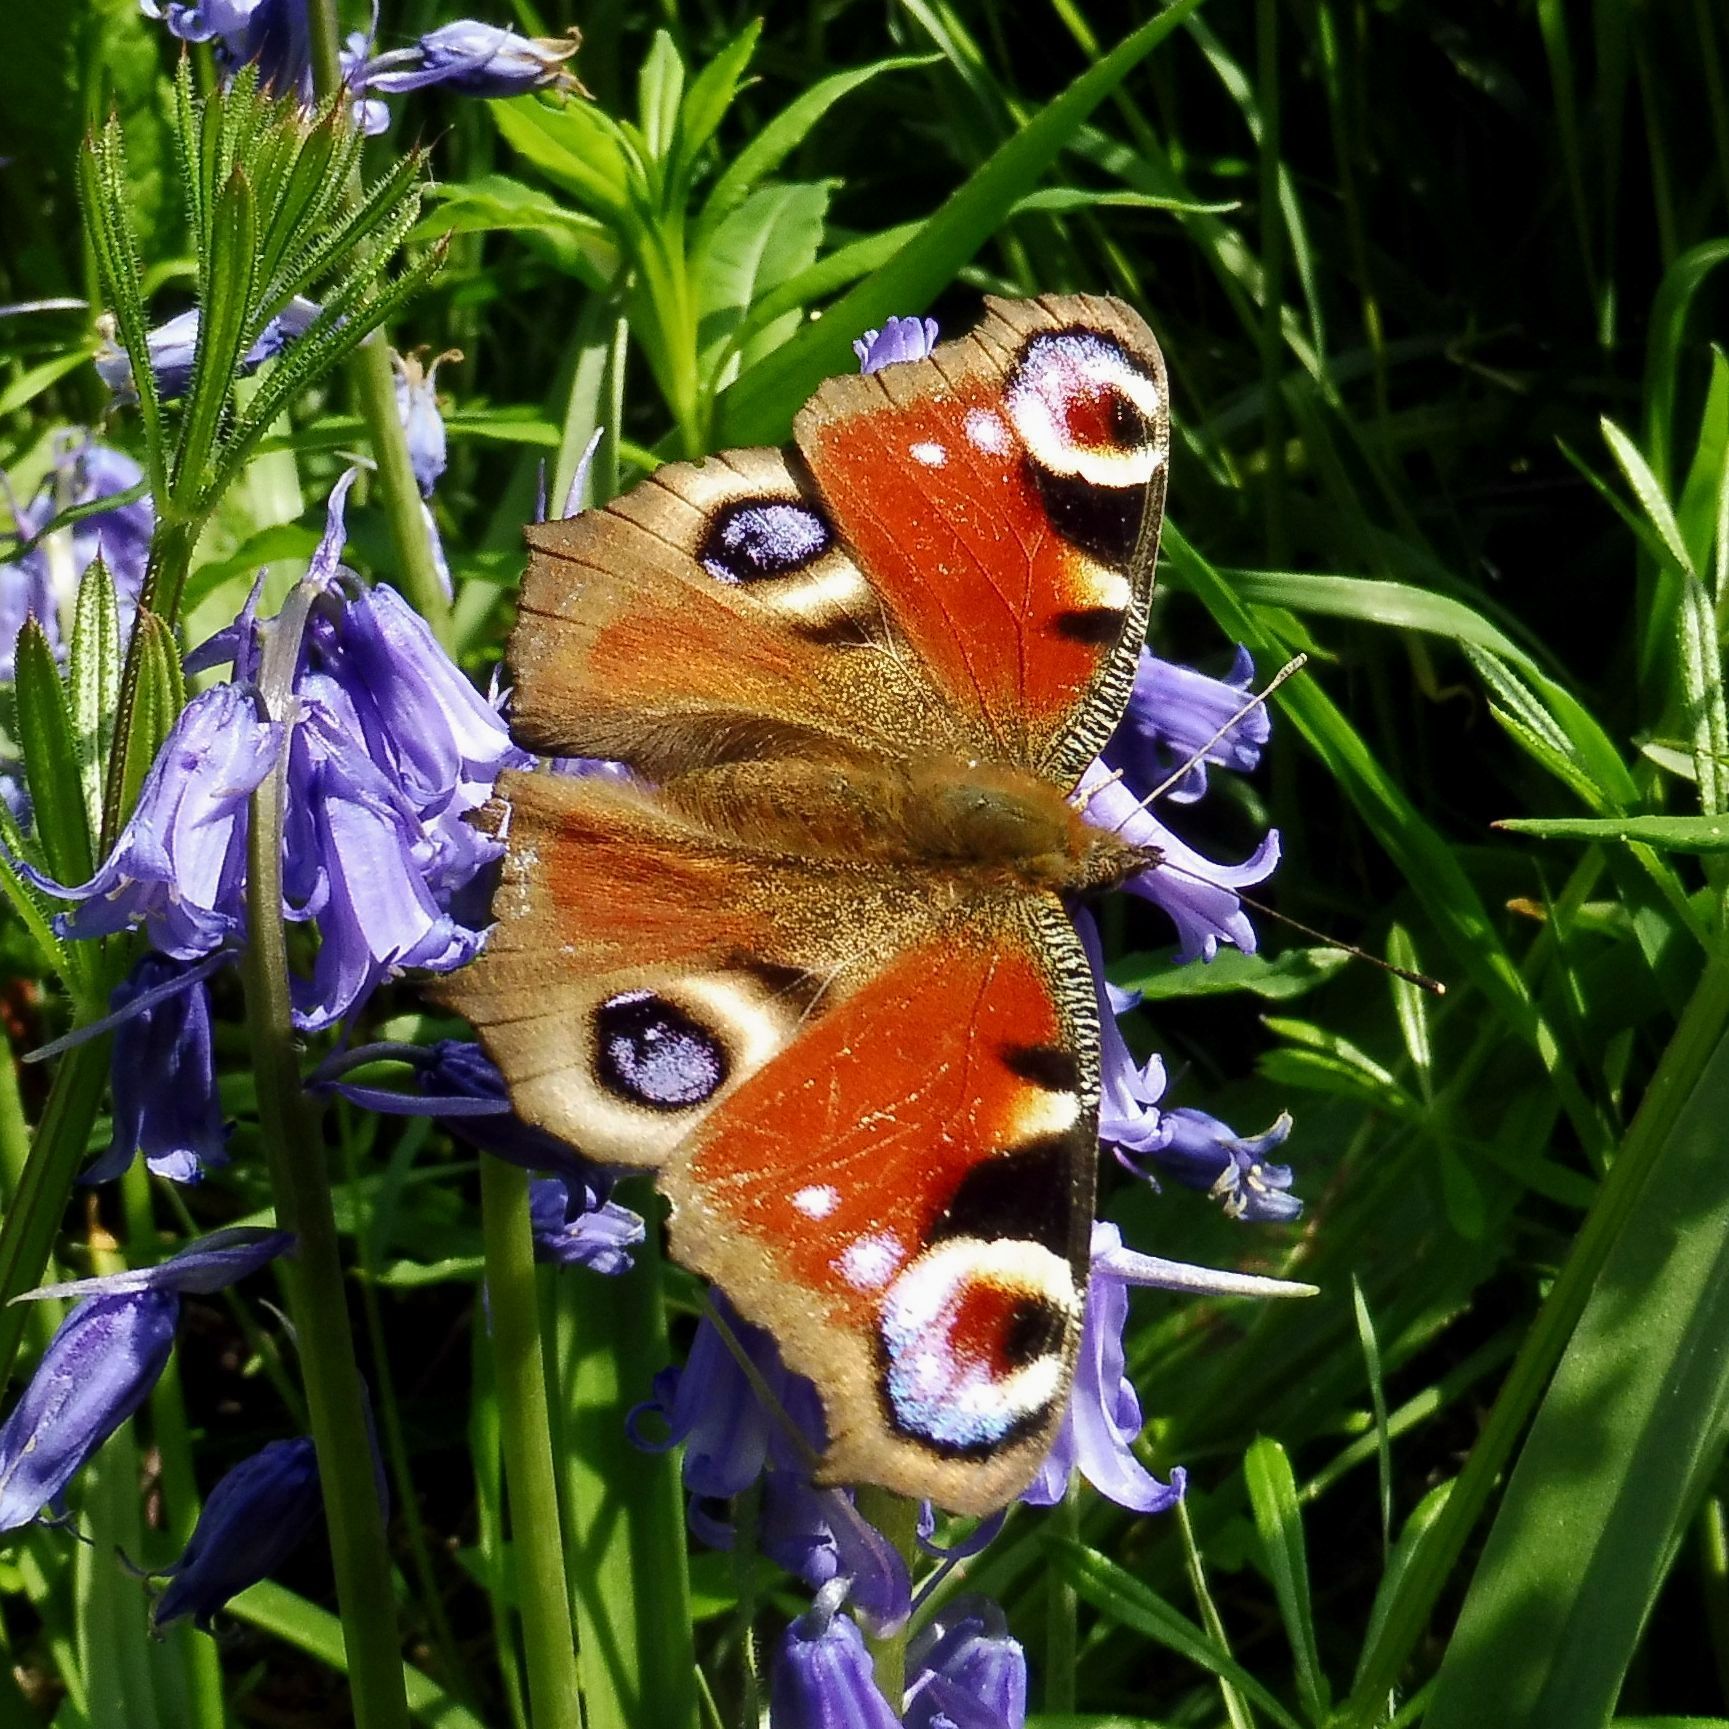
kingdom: Animalia
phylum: Arthropoda
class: Insecta
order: Lepidoptera
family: Nymphalidae
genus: Aglais
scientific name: Aglais io
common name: Peacock
